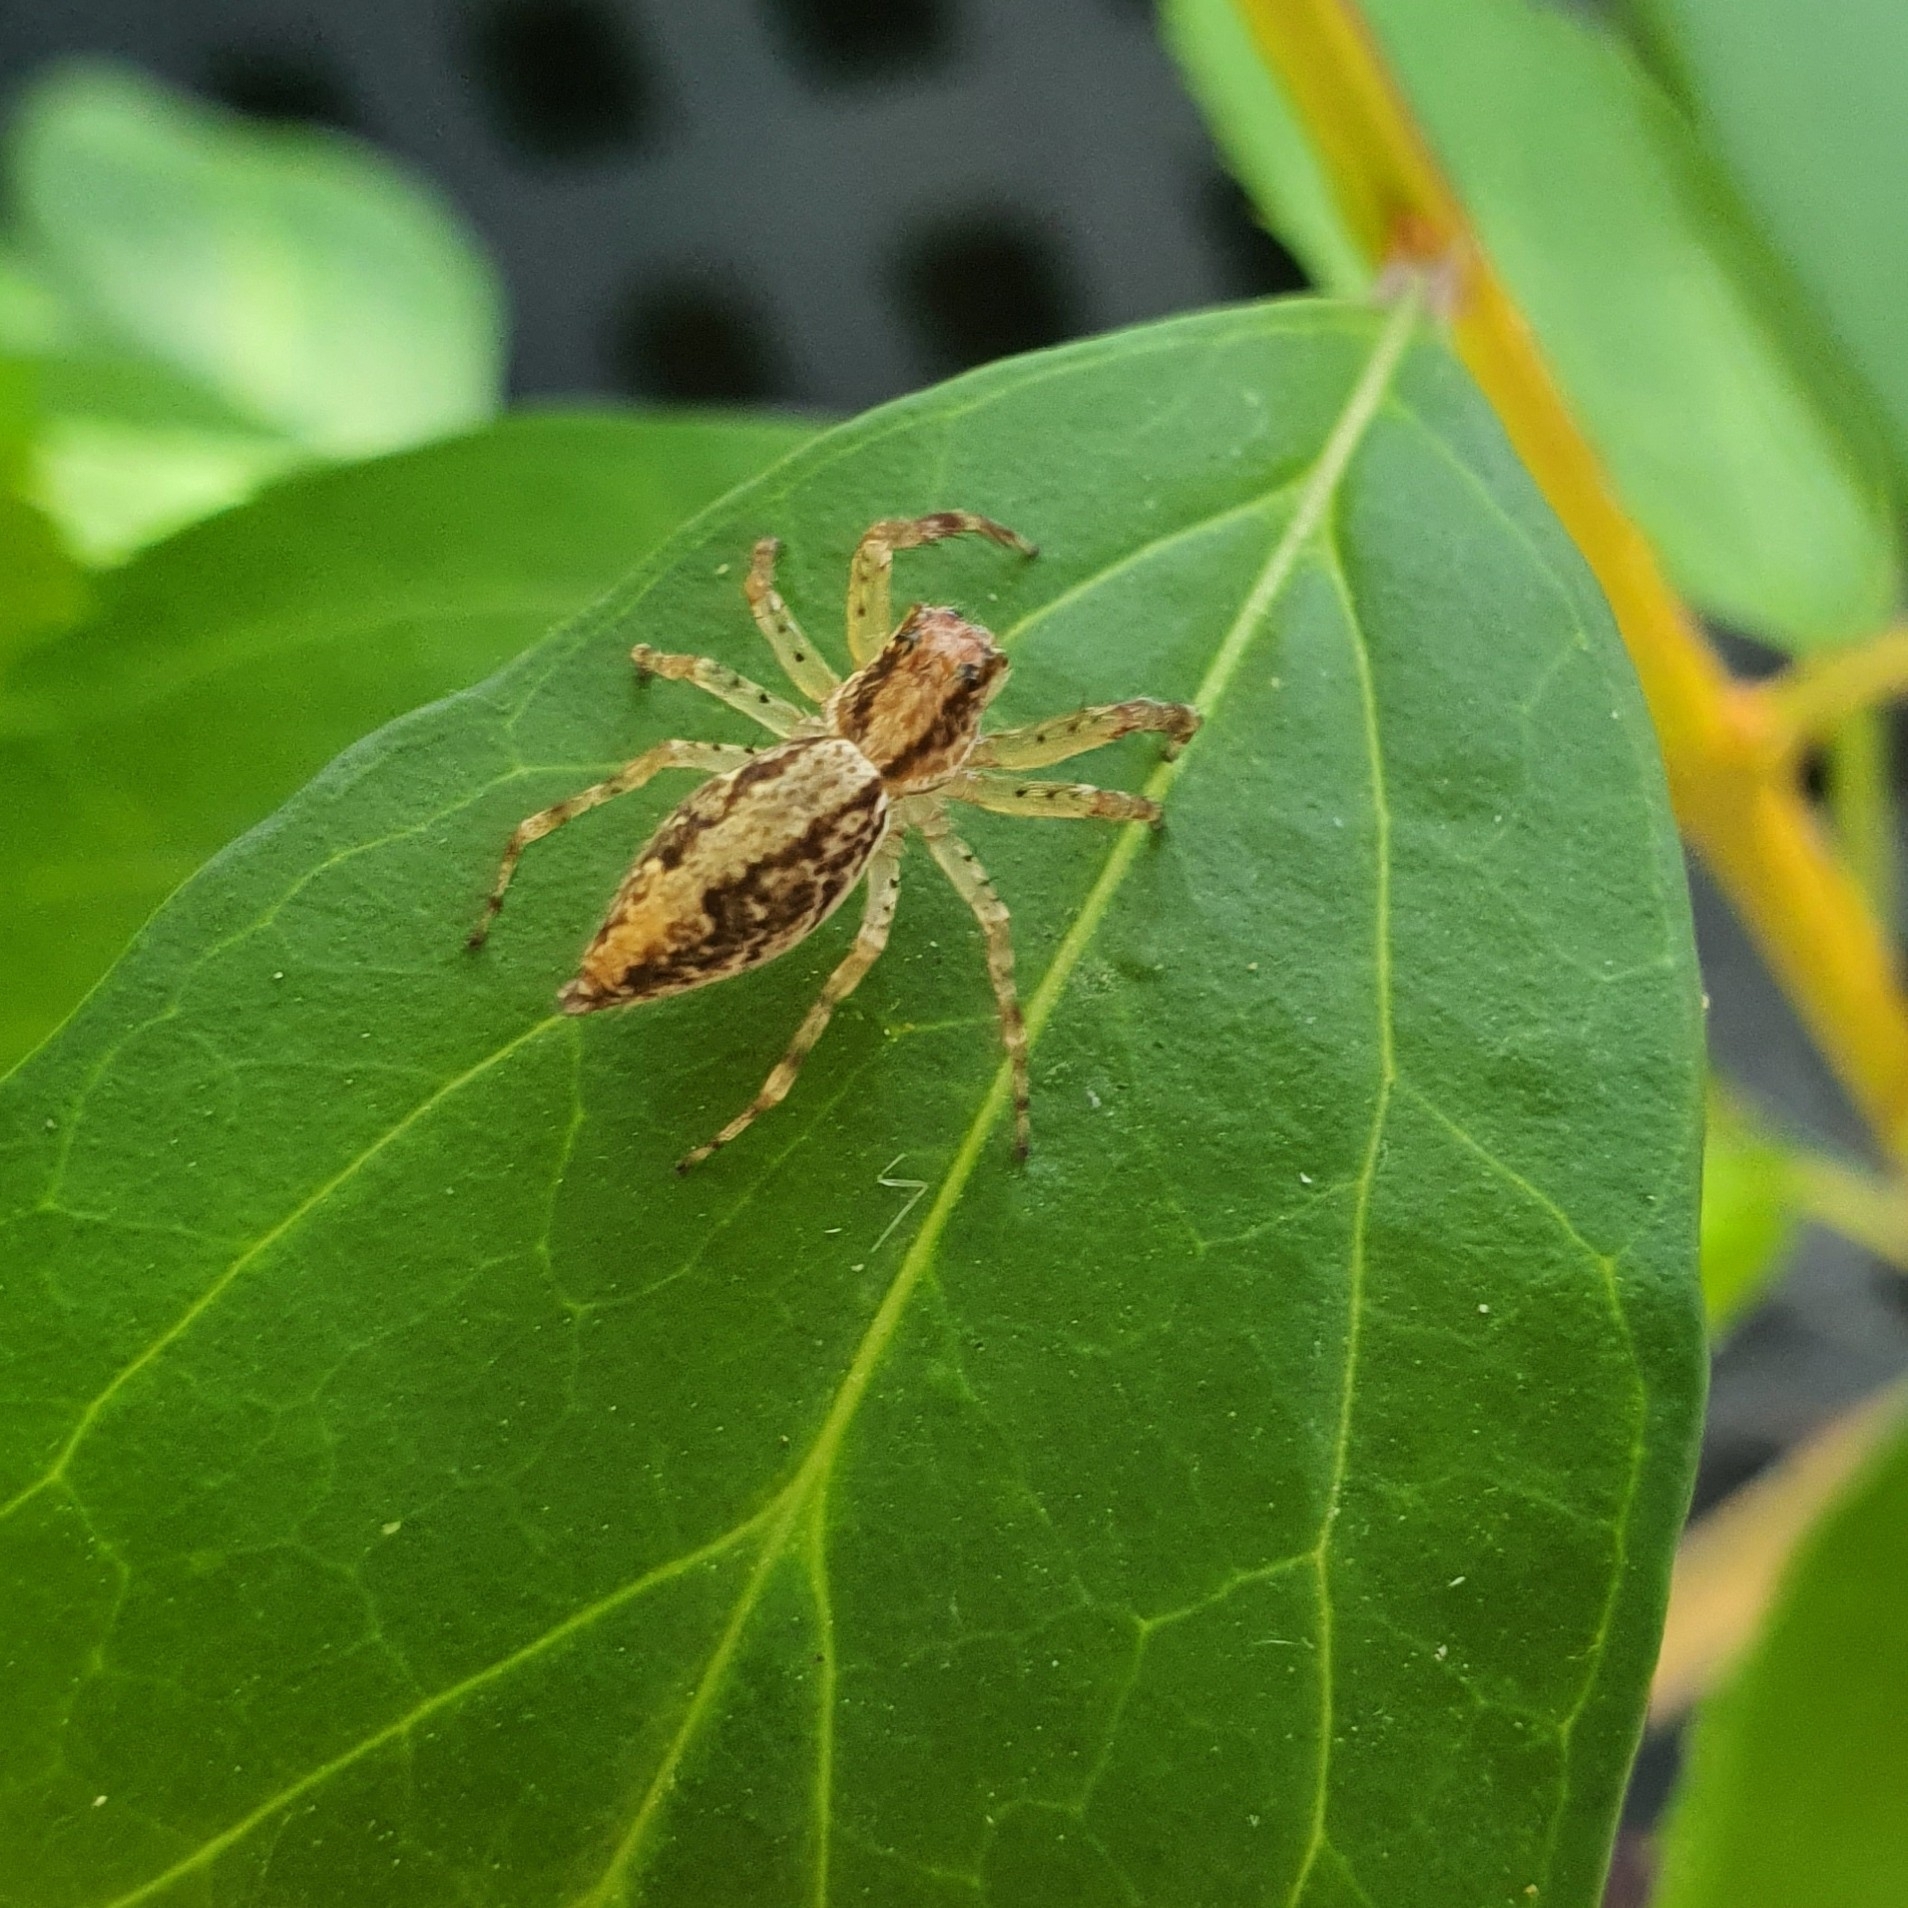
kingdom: Animalia
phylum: Arthropoda
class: Arachnida
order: Araneae
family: Salticidae
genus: Helpis
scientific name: Helpis minitabunda
